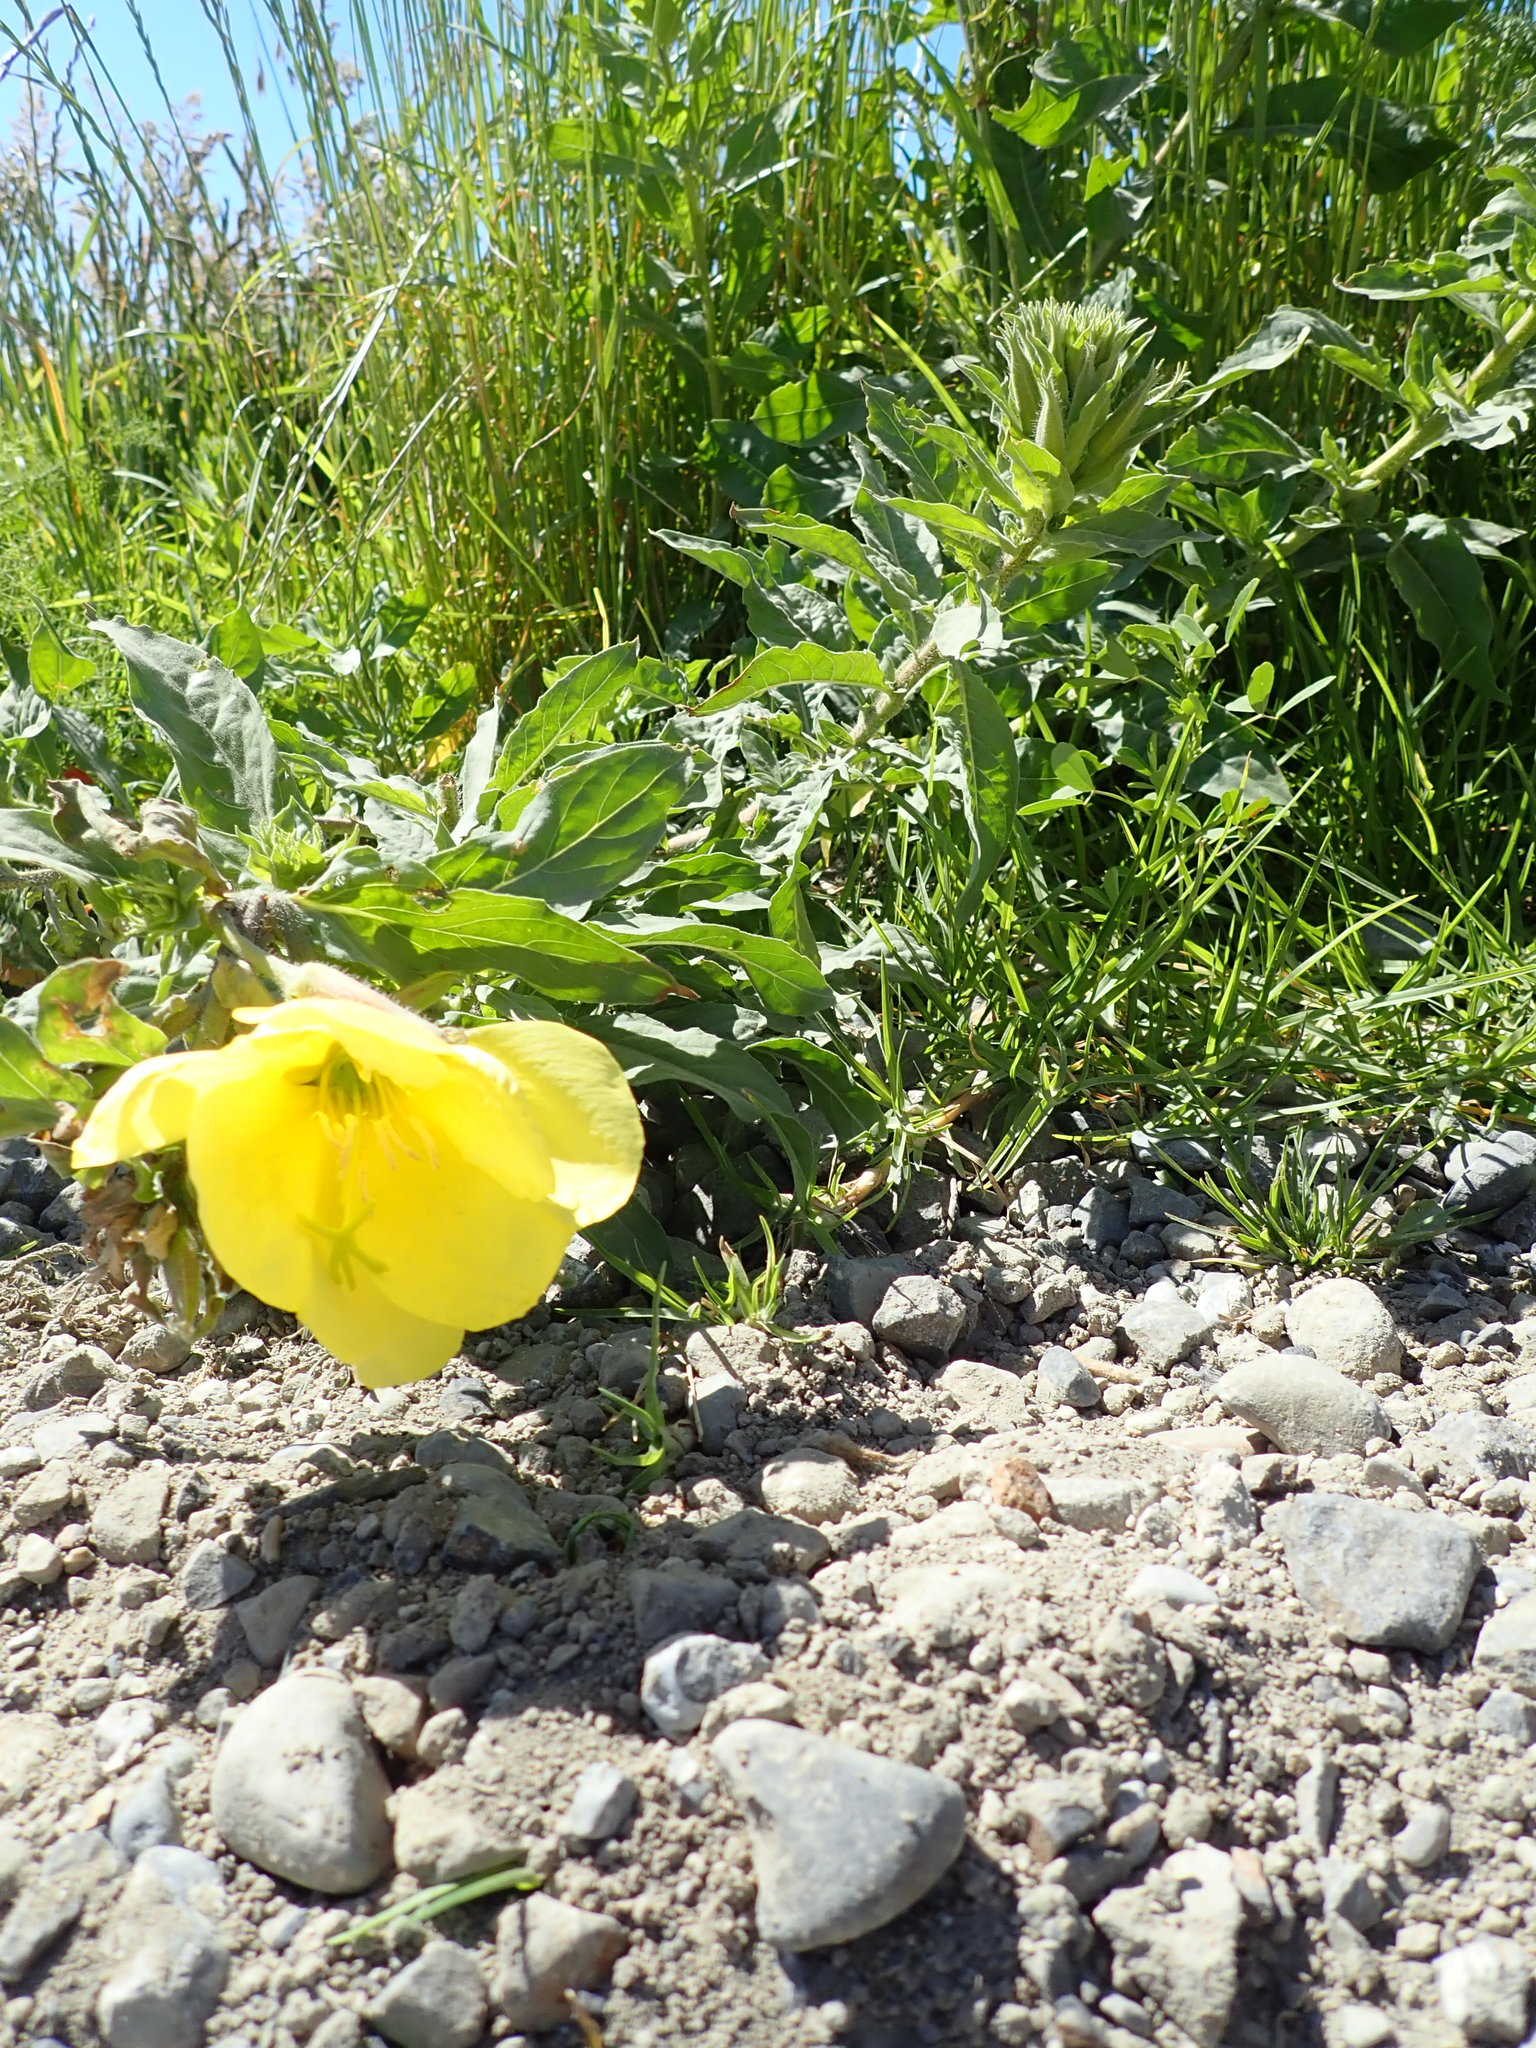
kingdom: Plantae
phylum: Tracheophyta
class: Magnoliopsida
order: Myrtales
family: Onagraceae
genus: Oenothera
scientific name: Oenothera glazioviana
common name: Large-flowered evening-primrose
